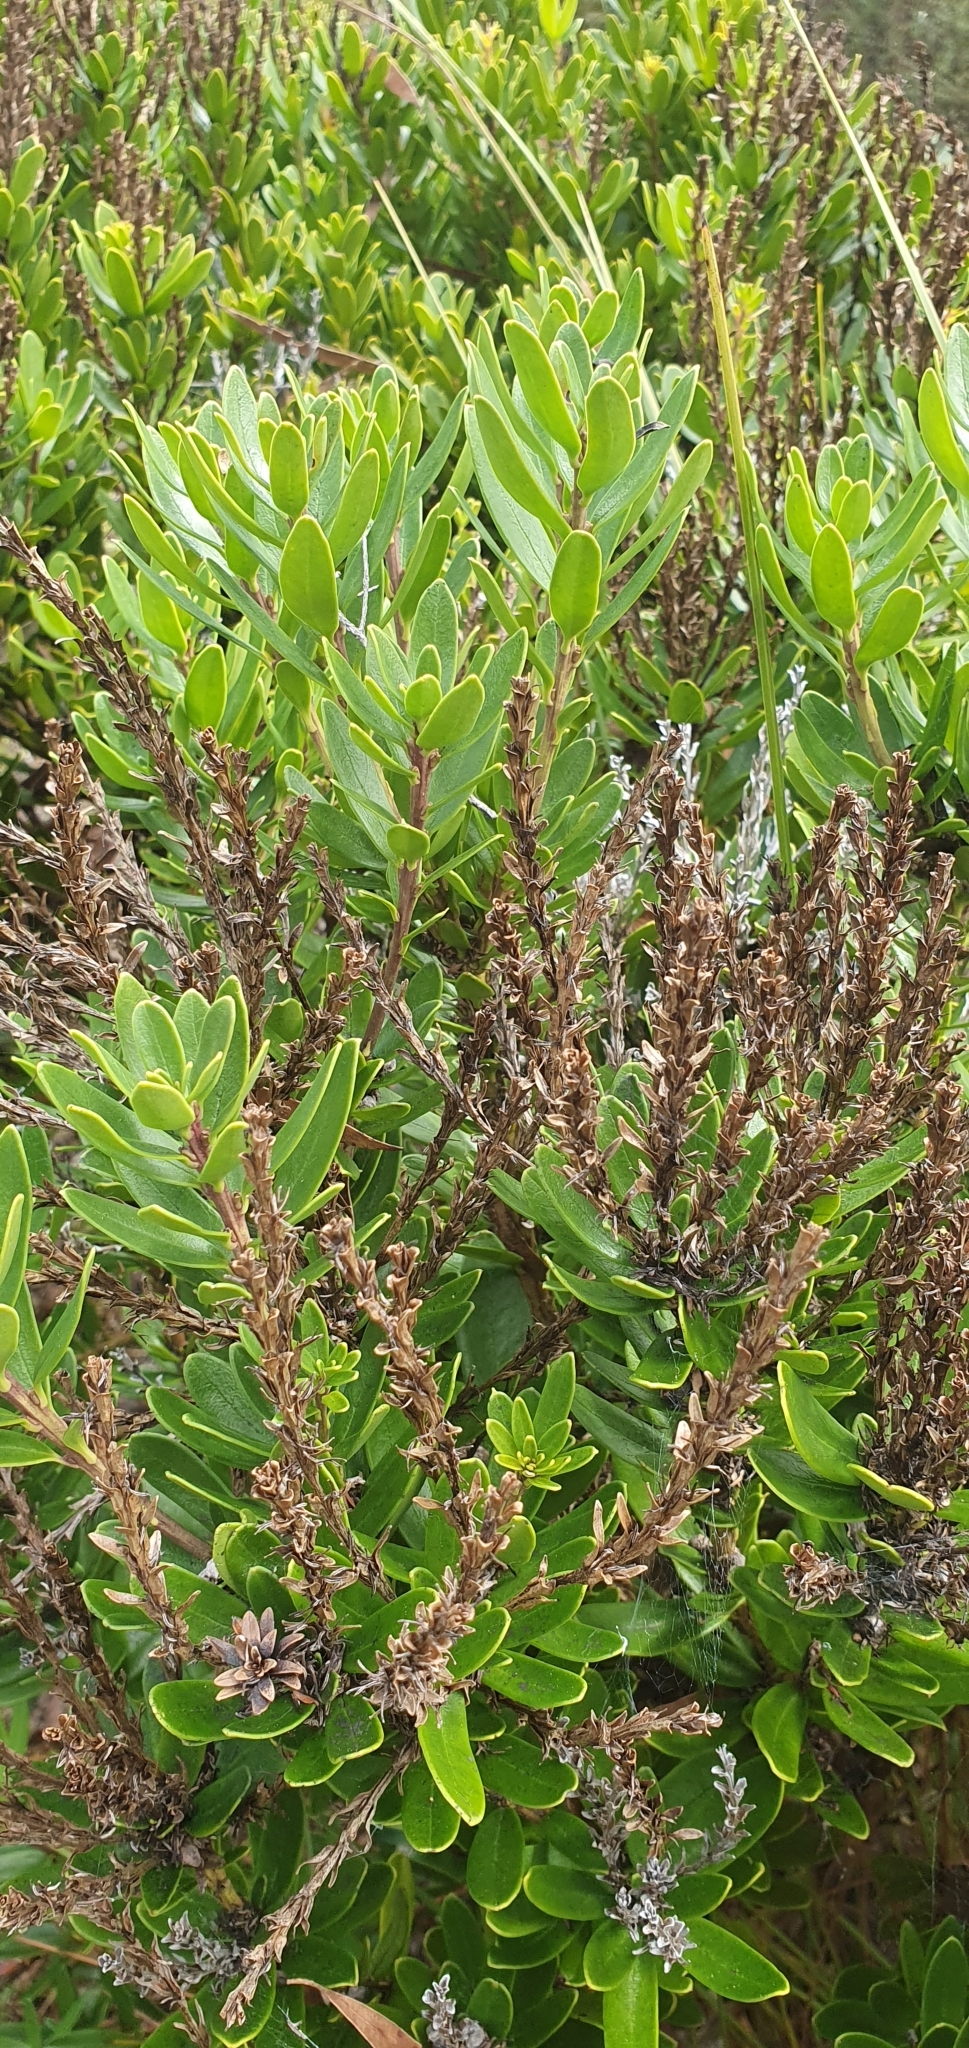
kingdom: Plantae
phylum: Tracheophyta
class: Magnoliopsida
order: Proteales
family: Proteaceae
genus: Agastachys
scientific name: Agastachys odorata
